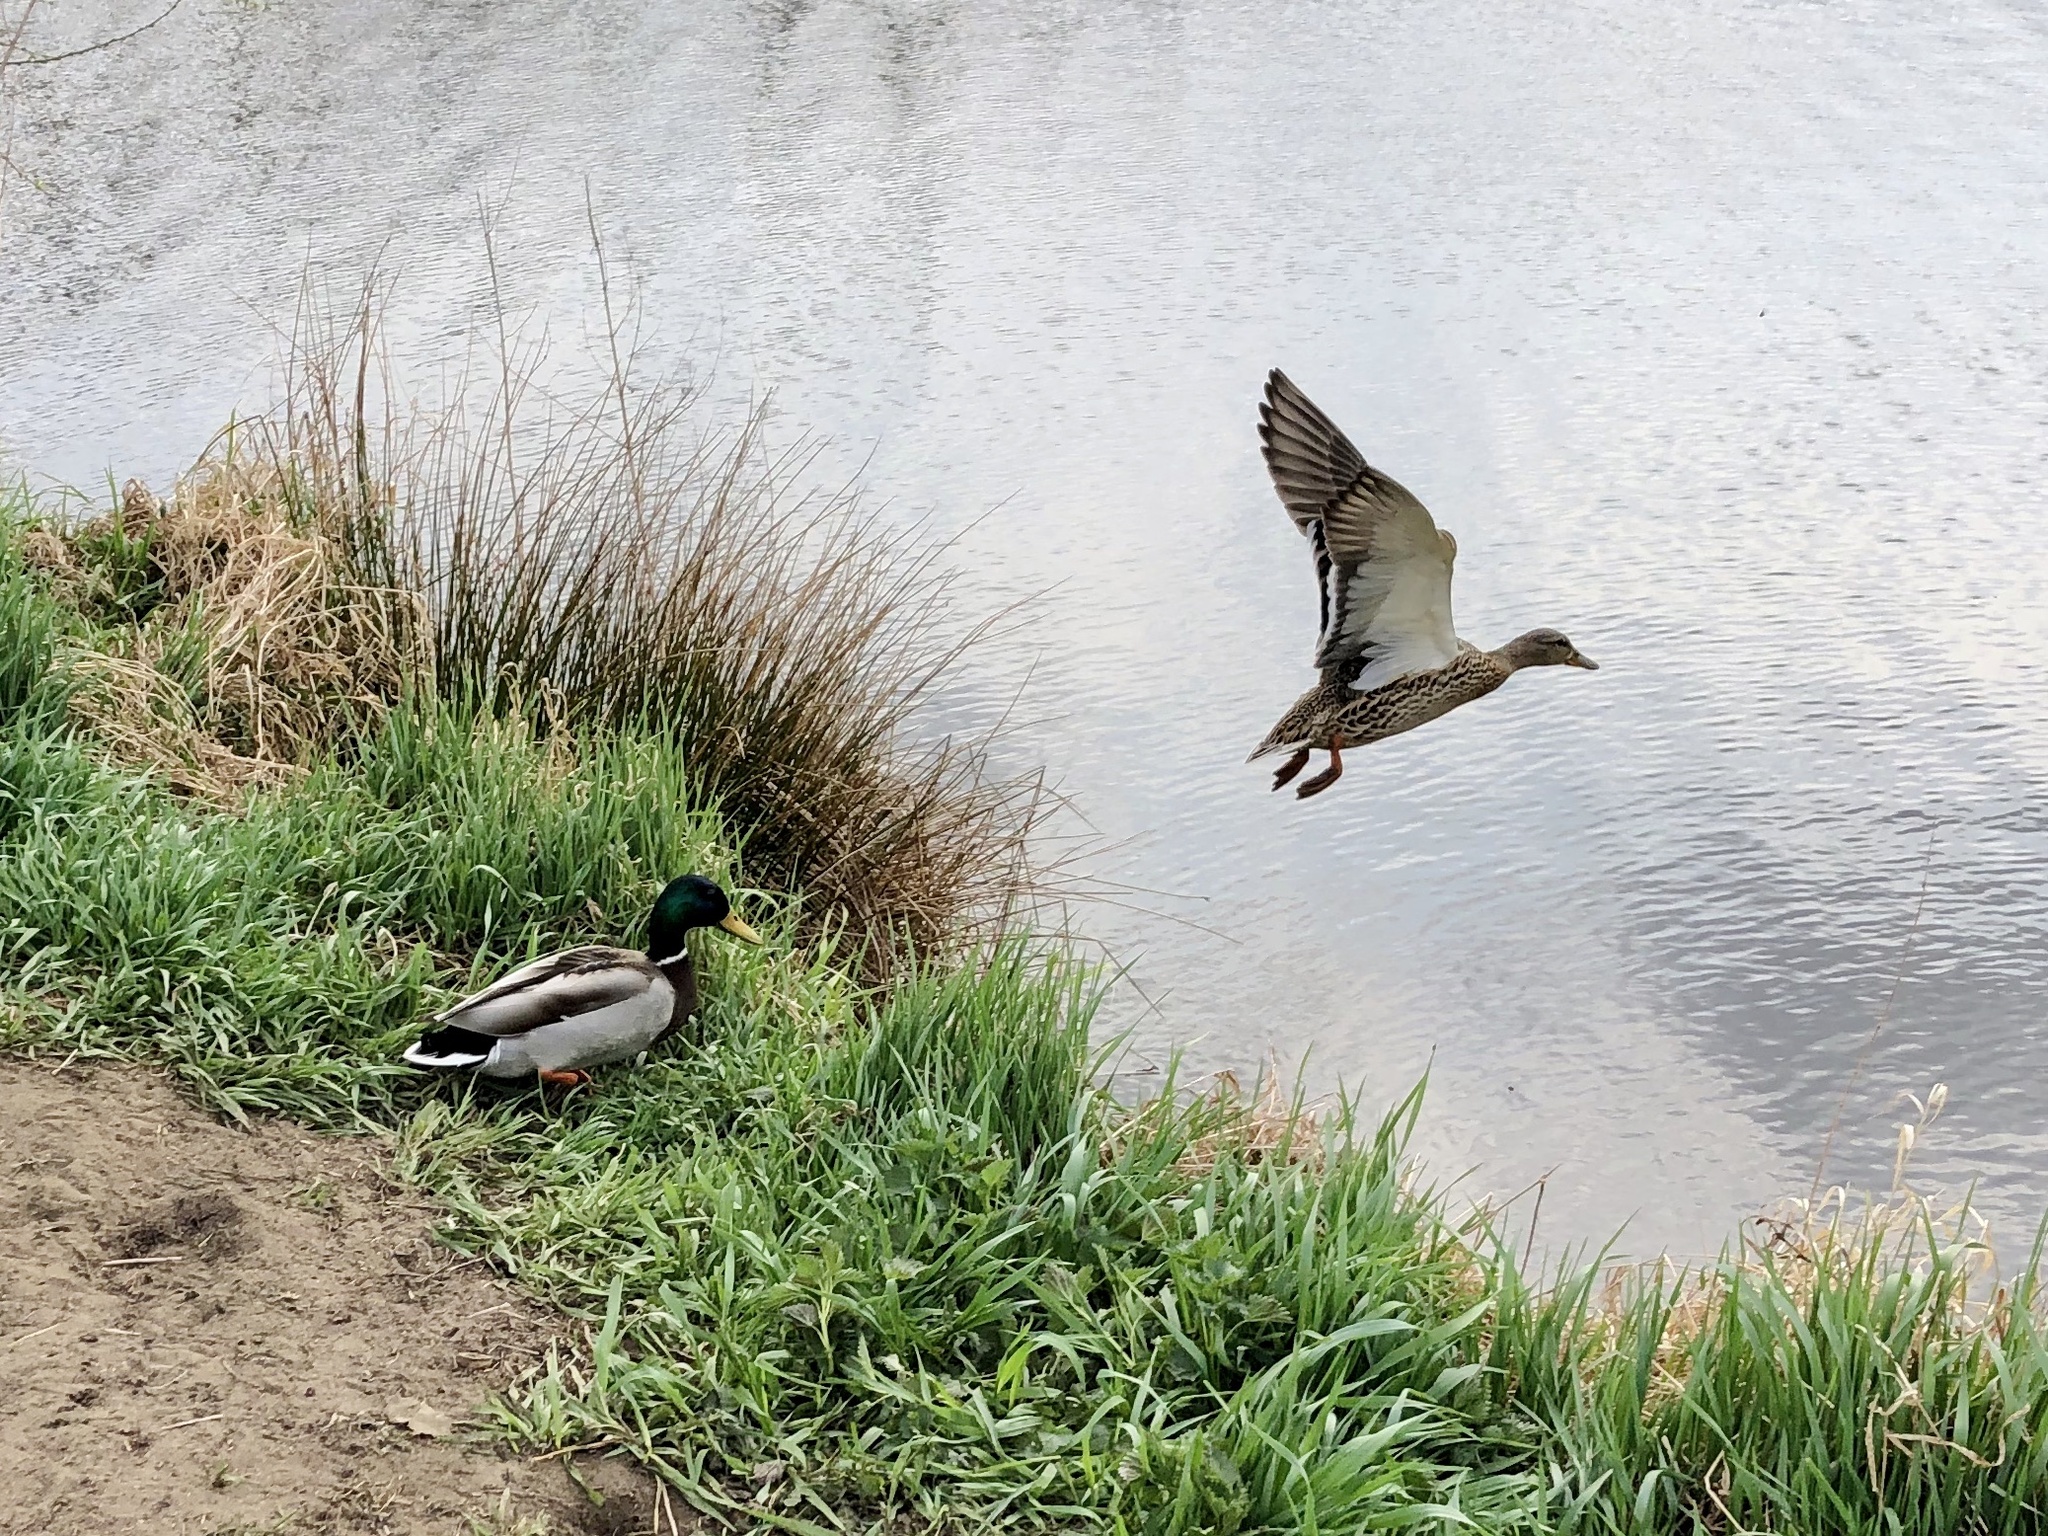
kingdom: Animalia
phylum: Chordata
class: Aves
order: Anseriformes
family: Anatidae
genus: Anas
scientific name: Anas platyrhynchos
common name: Mallard
